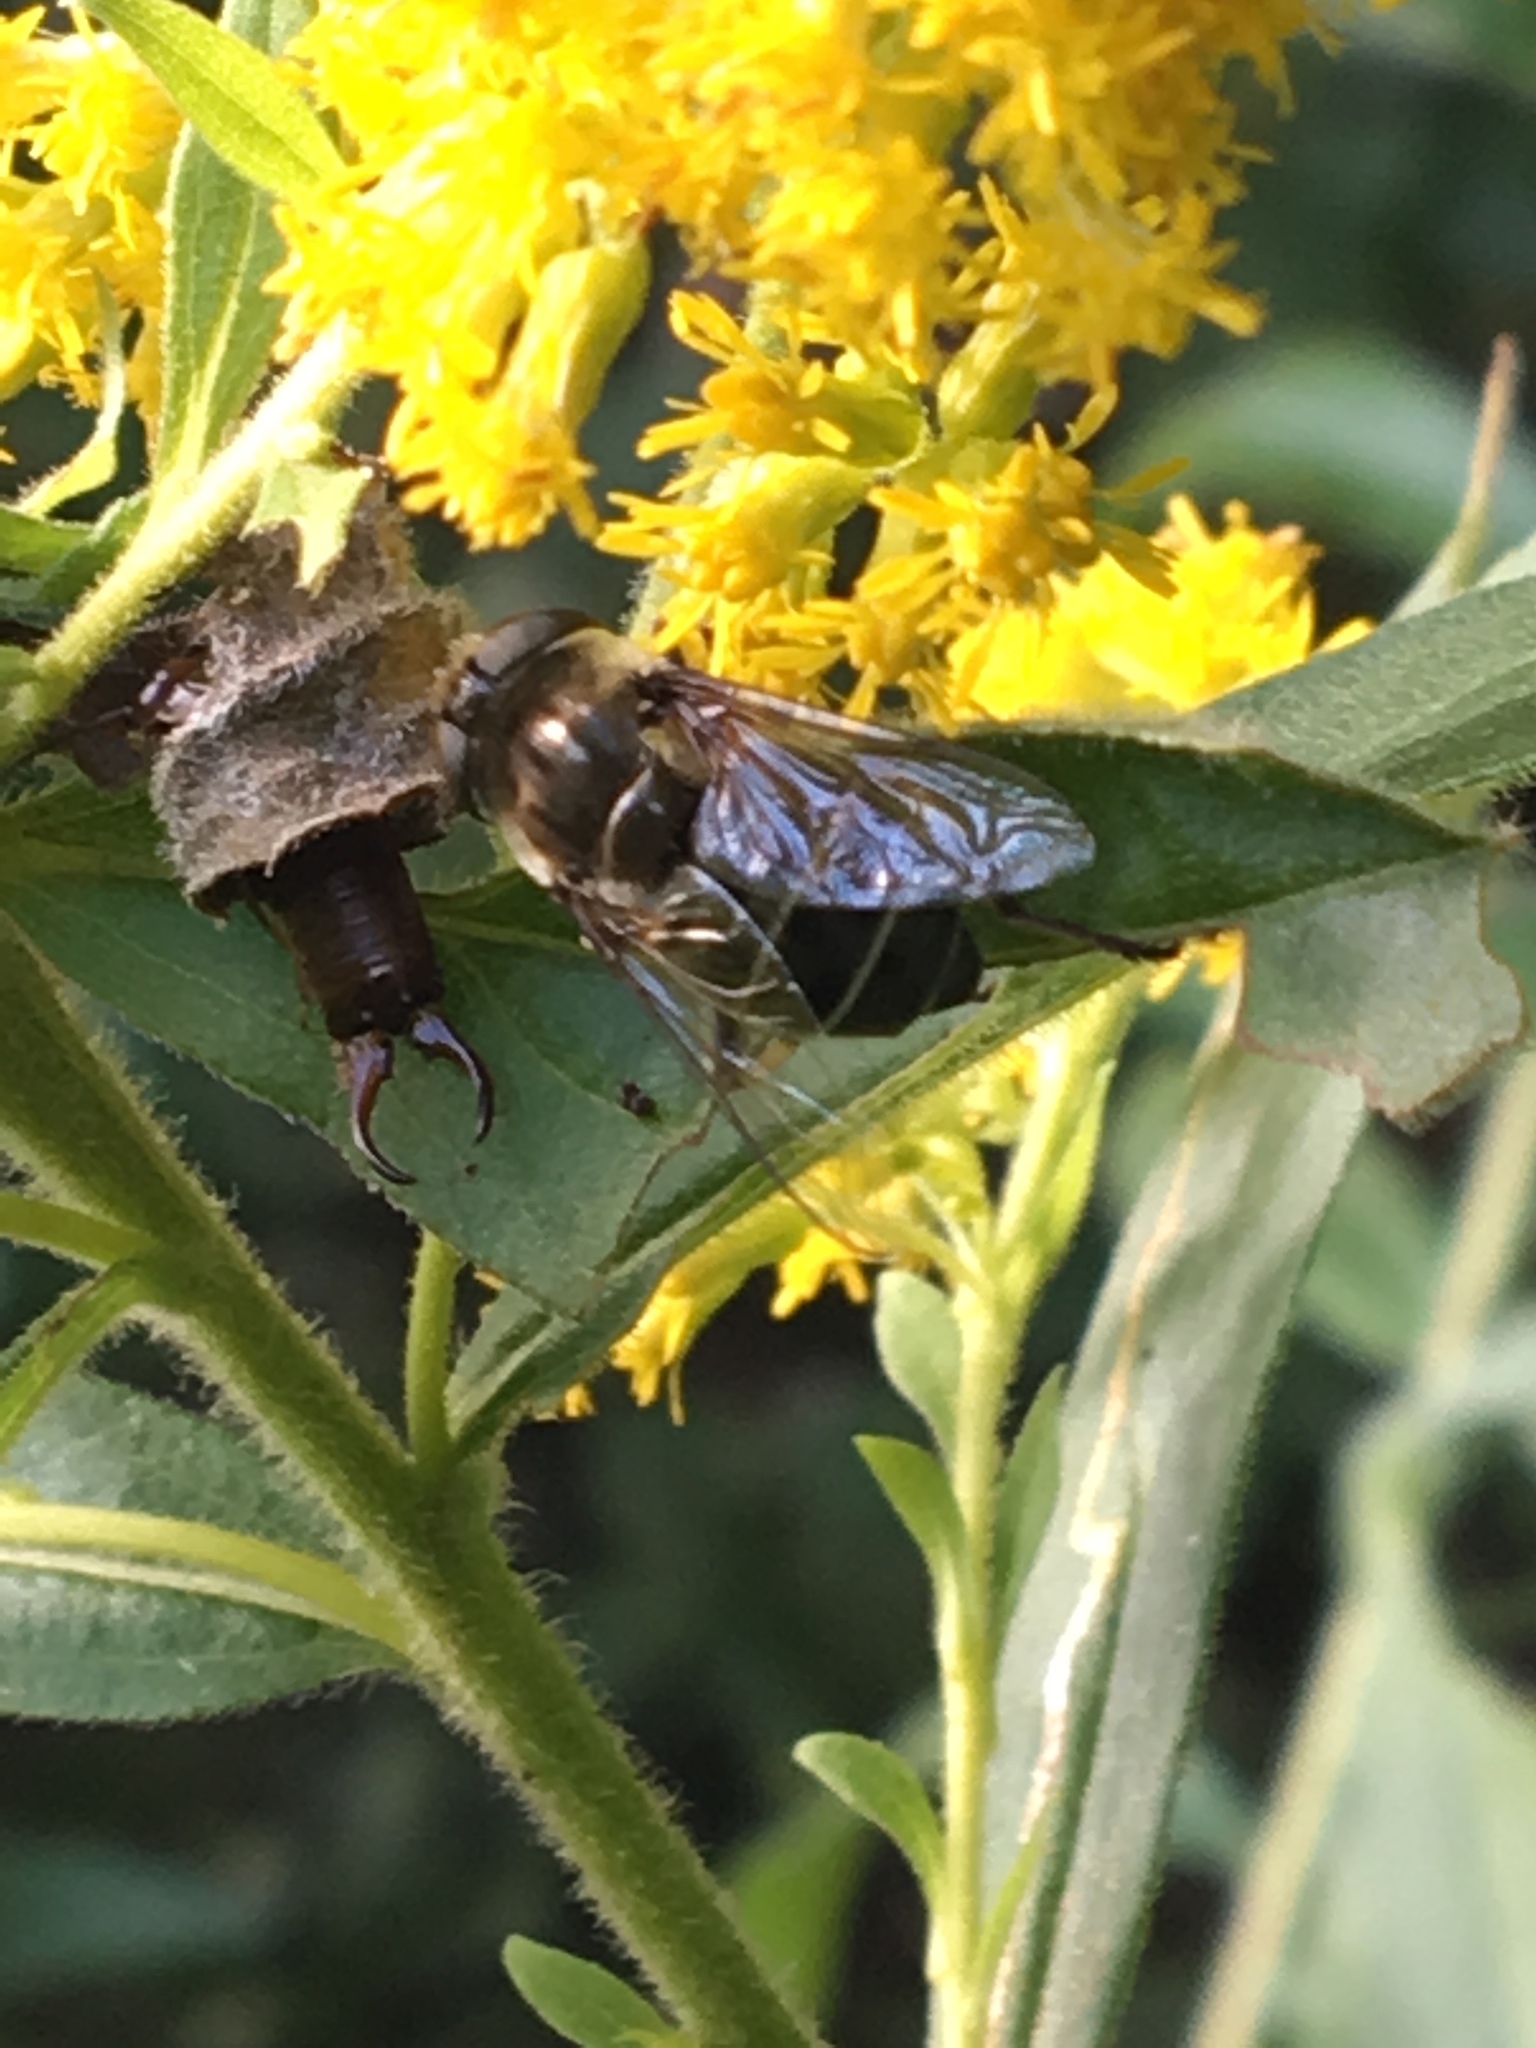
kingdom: Animalia
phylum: Arthropoda
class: Insecta
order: Diptera
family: Syrphidae
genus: Eristalis
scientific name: Eristalis dimidiata
